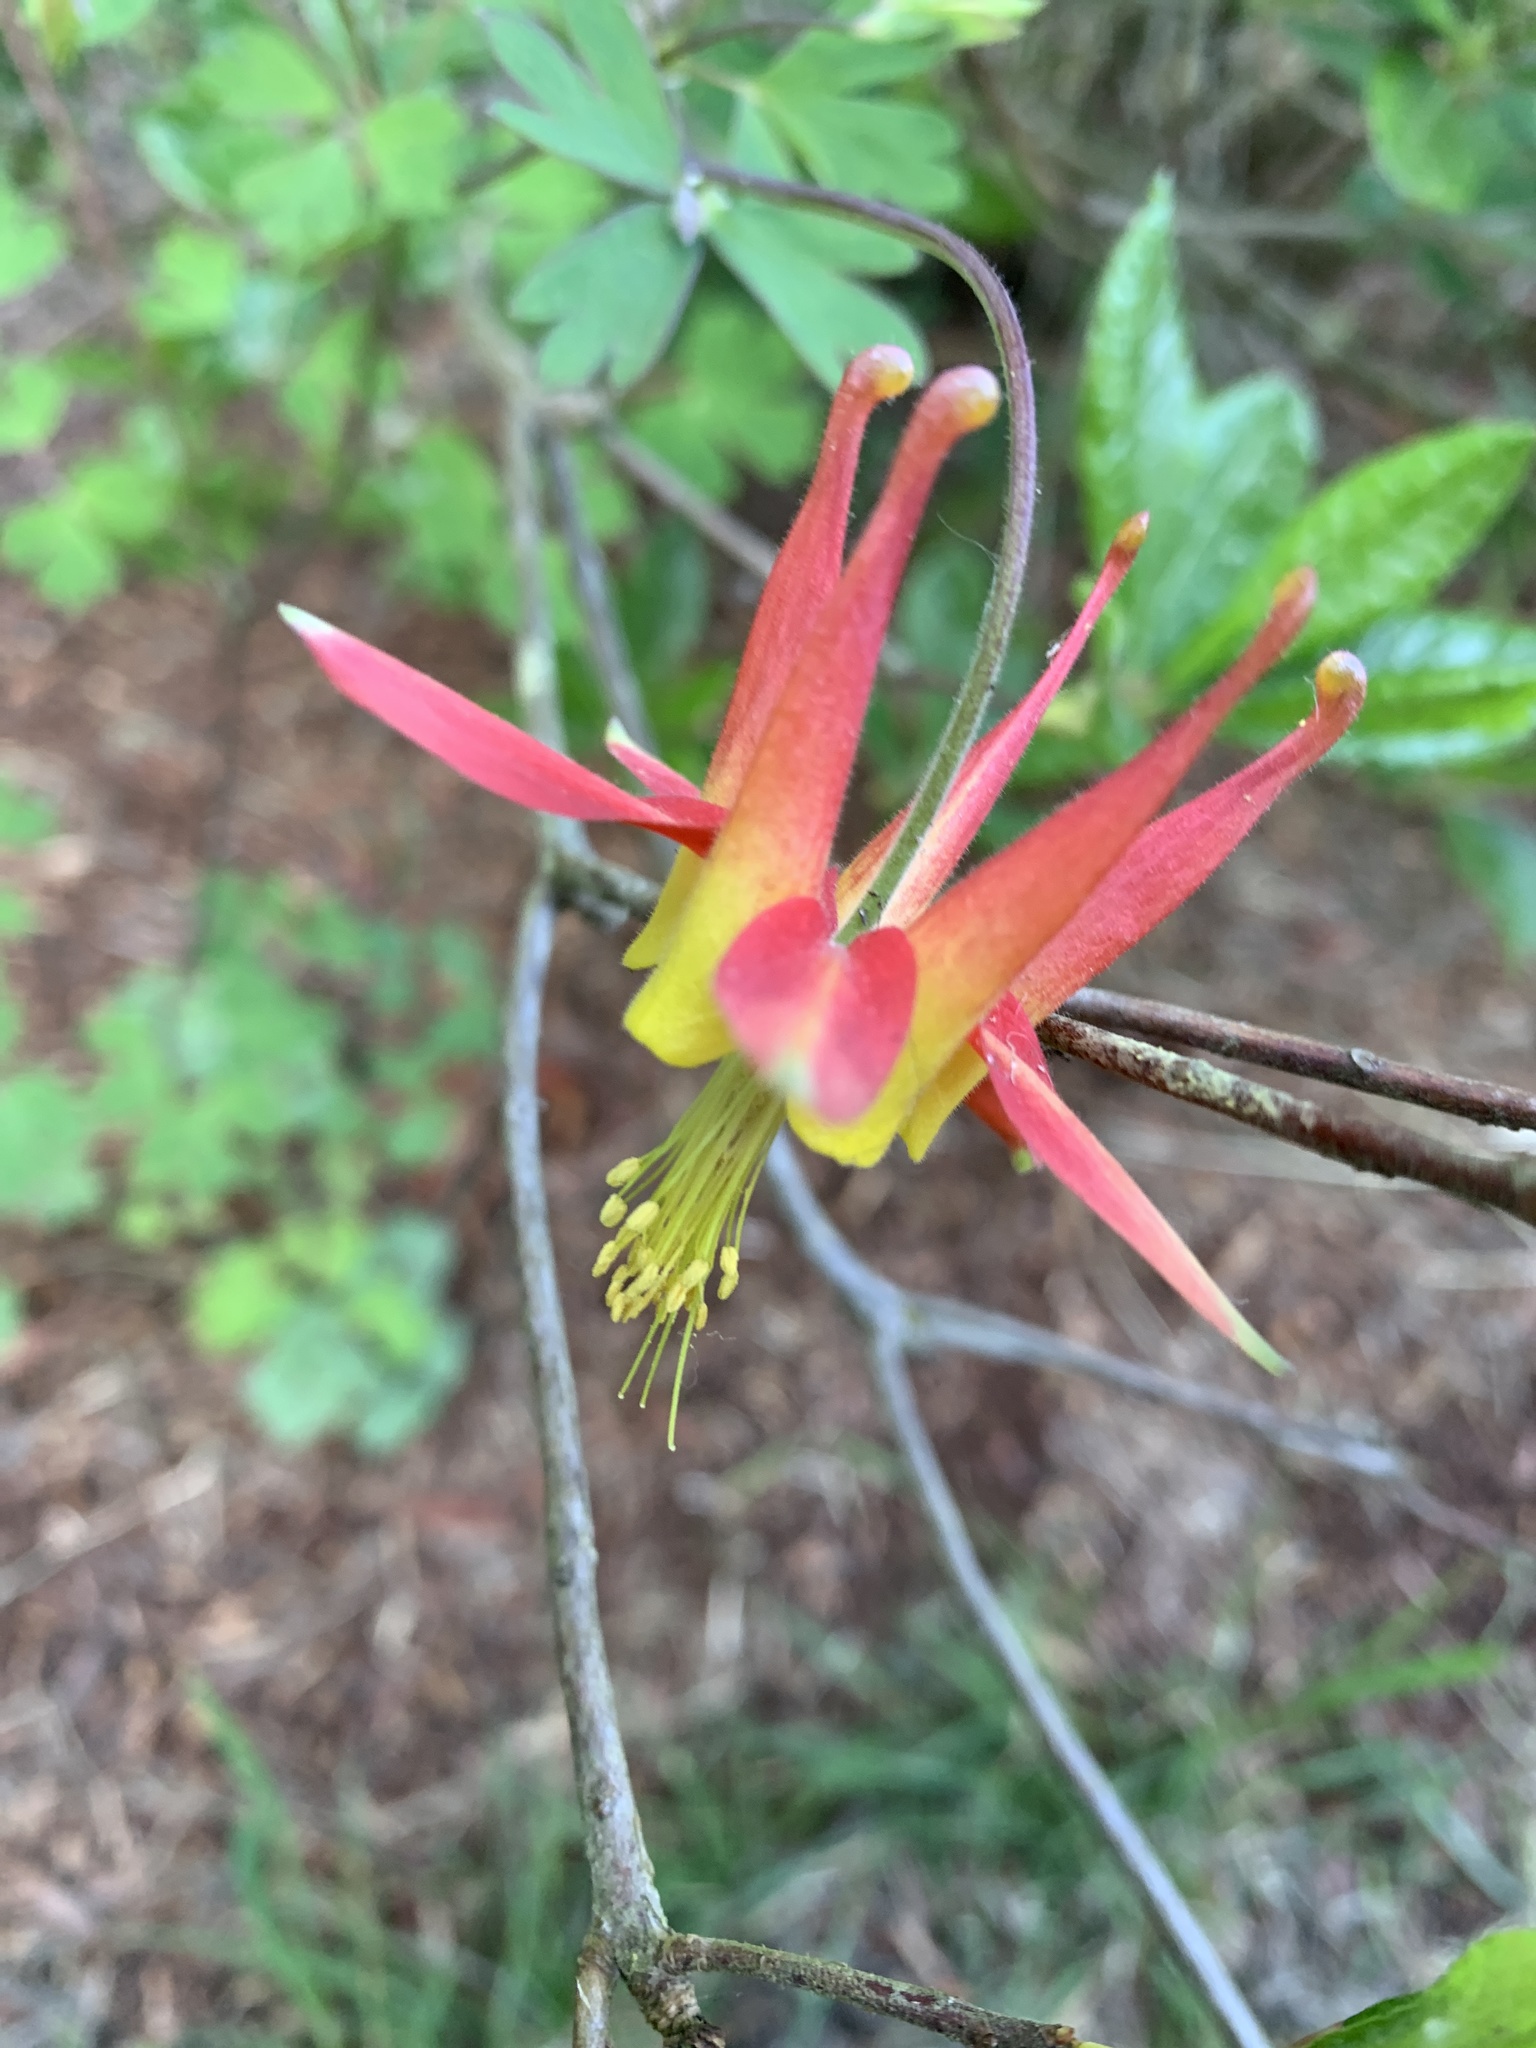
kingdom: Plantae
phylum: Tracheophyta
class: Magnoliopsida
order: Ranunculales
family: Ranunculaceae
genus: Aquilegia
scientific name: Aquilegia formosa
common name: Sitka columbine
